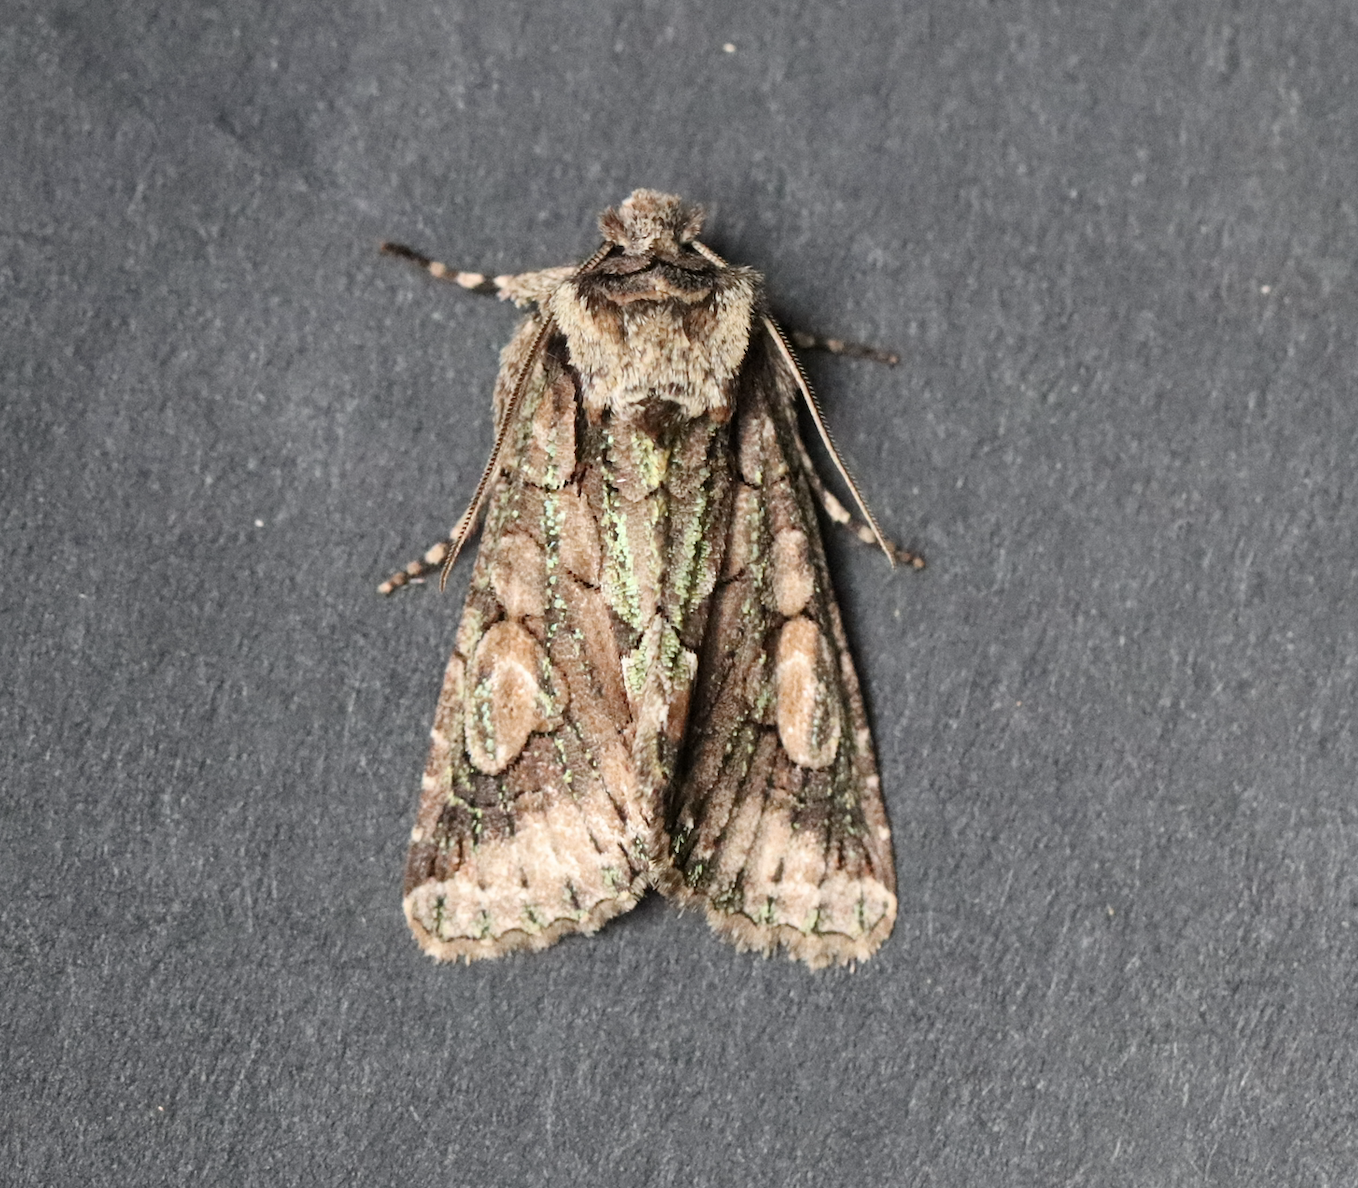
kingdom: Animalia
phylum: Arthropoda
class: Insecta
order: Lepidoptera
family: Noctuidae
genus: Allophyes
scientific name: Allophyes oxyacanthae
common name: Green-brindled crescent
